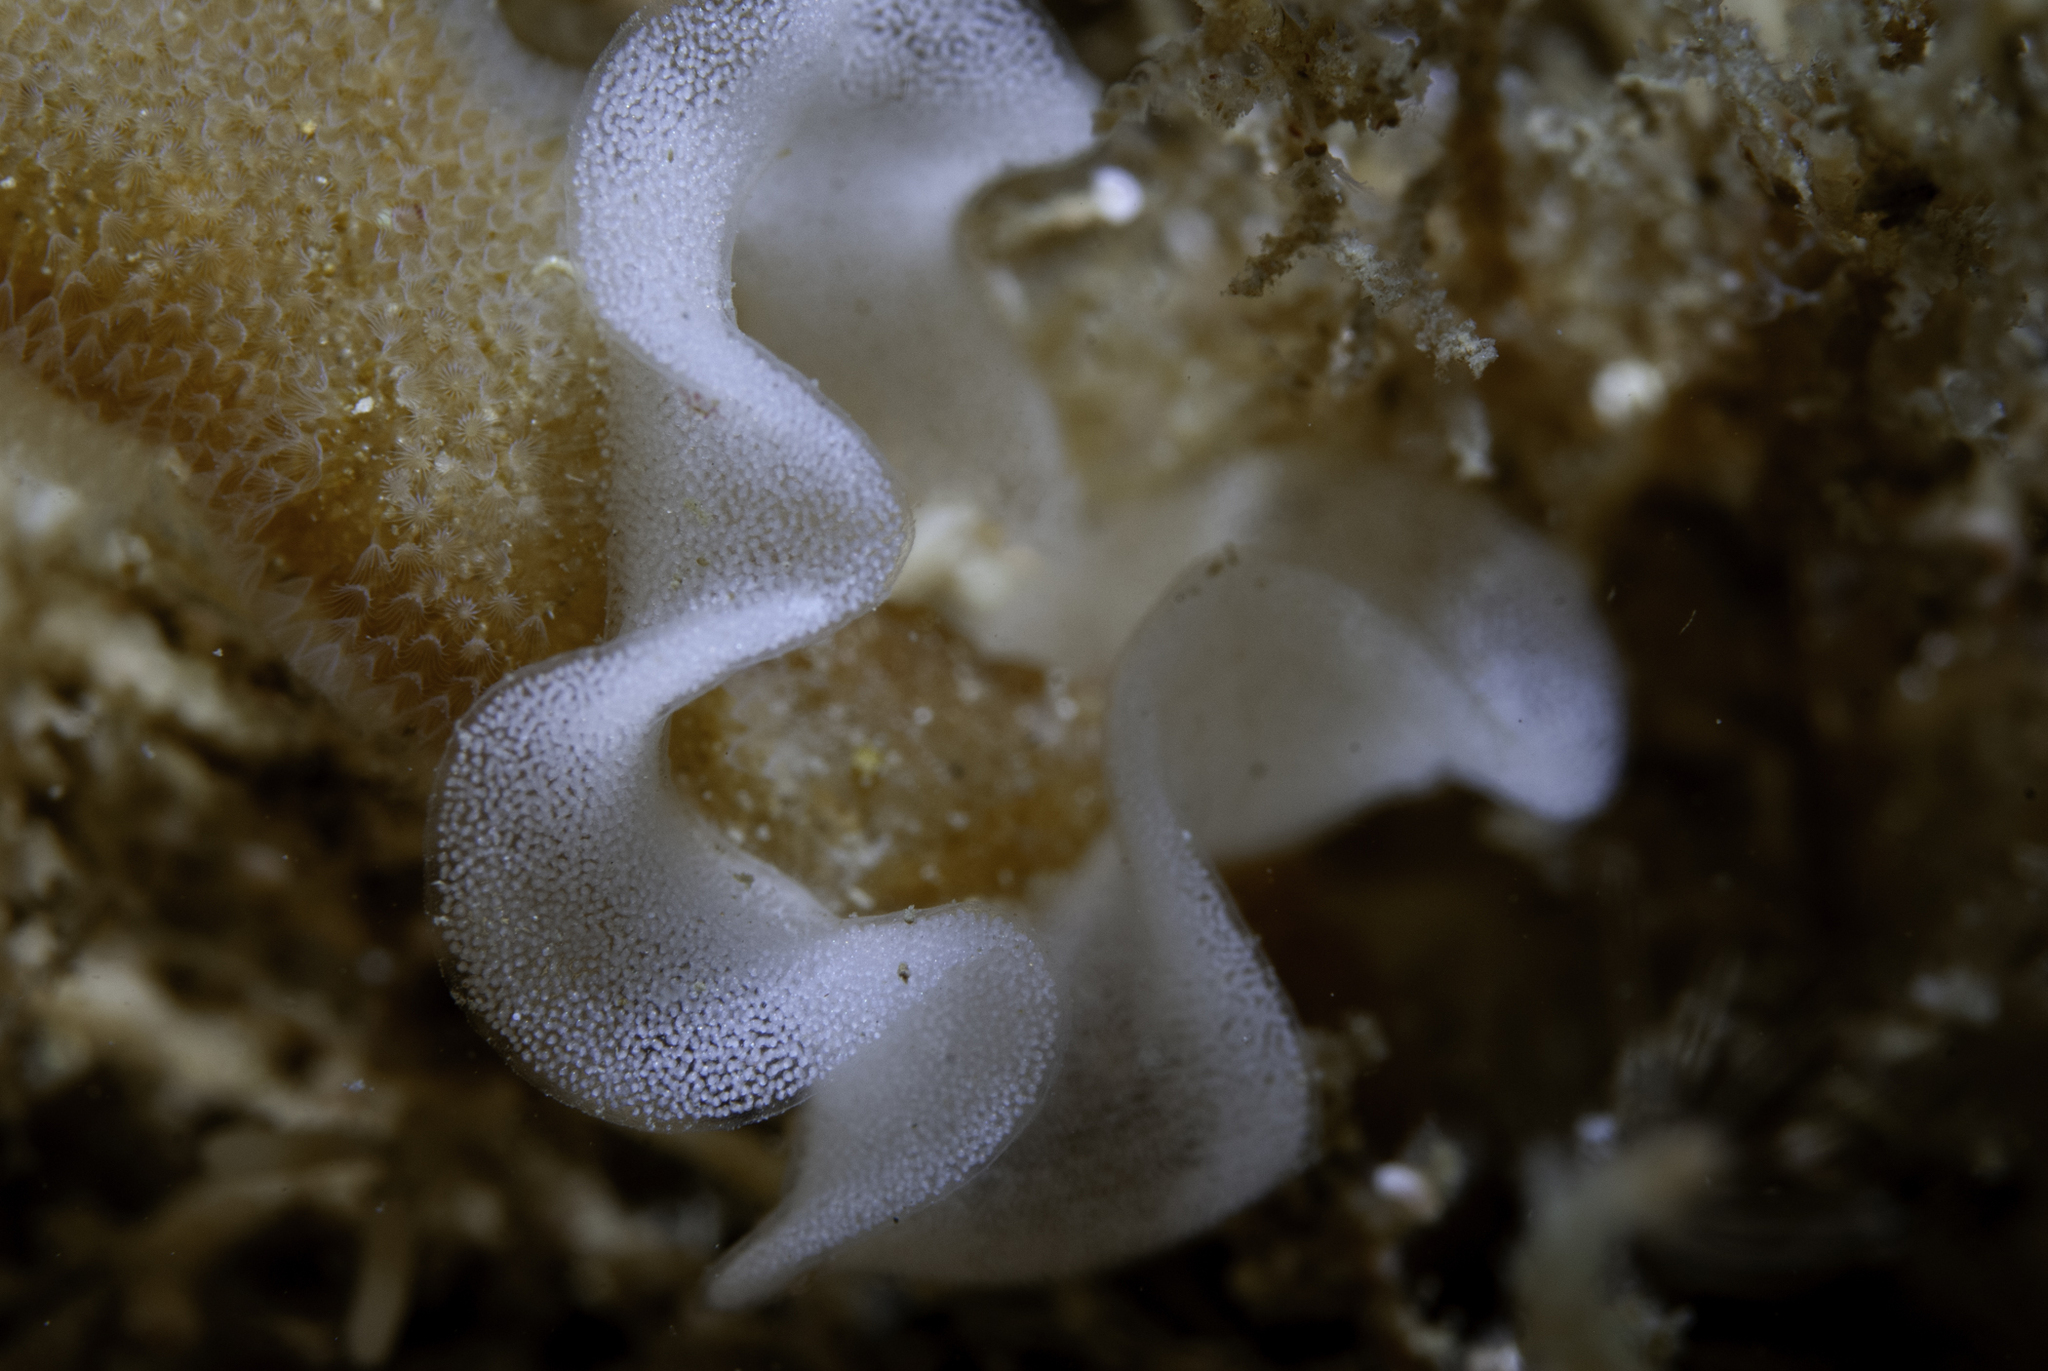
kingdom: Animalia
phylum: Mollusca
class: Gastropoda
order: Nudibranchia
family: Onchidorididae
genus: Acanthodoris
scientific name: Acanthodoris pilosa
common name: Hairy spiny doris
